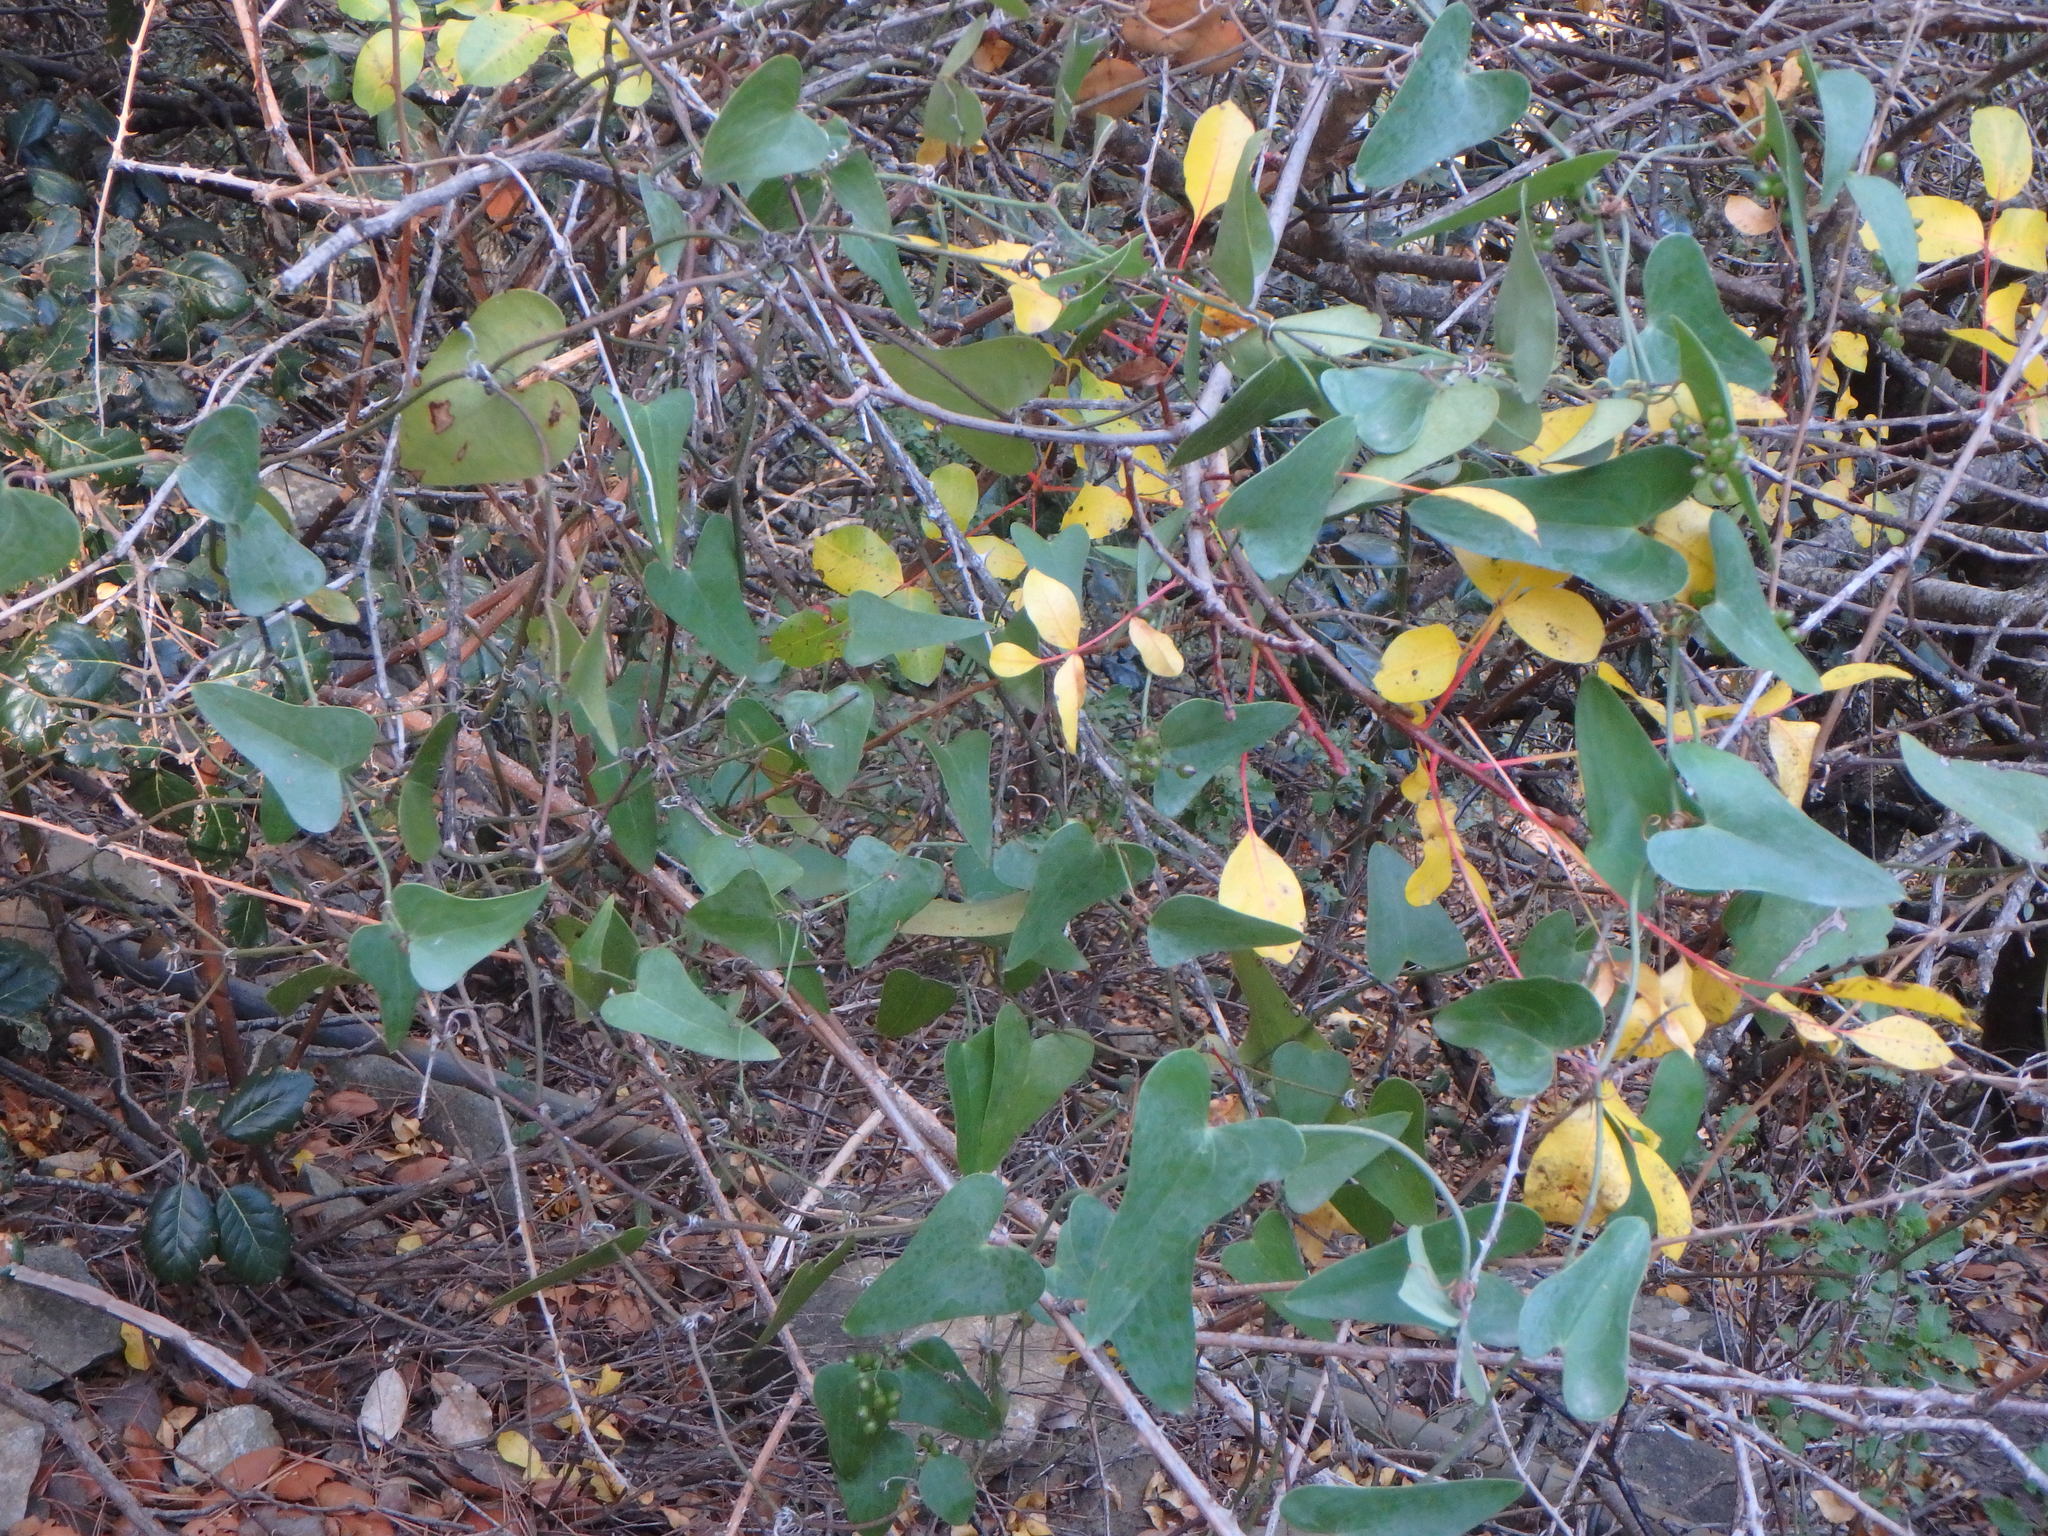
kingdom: Plantae
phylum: Tracheophyta
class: Liliopsida
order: Liliales
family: Smilacaceae
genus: Smilax
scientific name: Smilax aspera
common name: Common smilax
